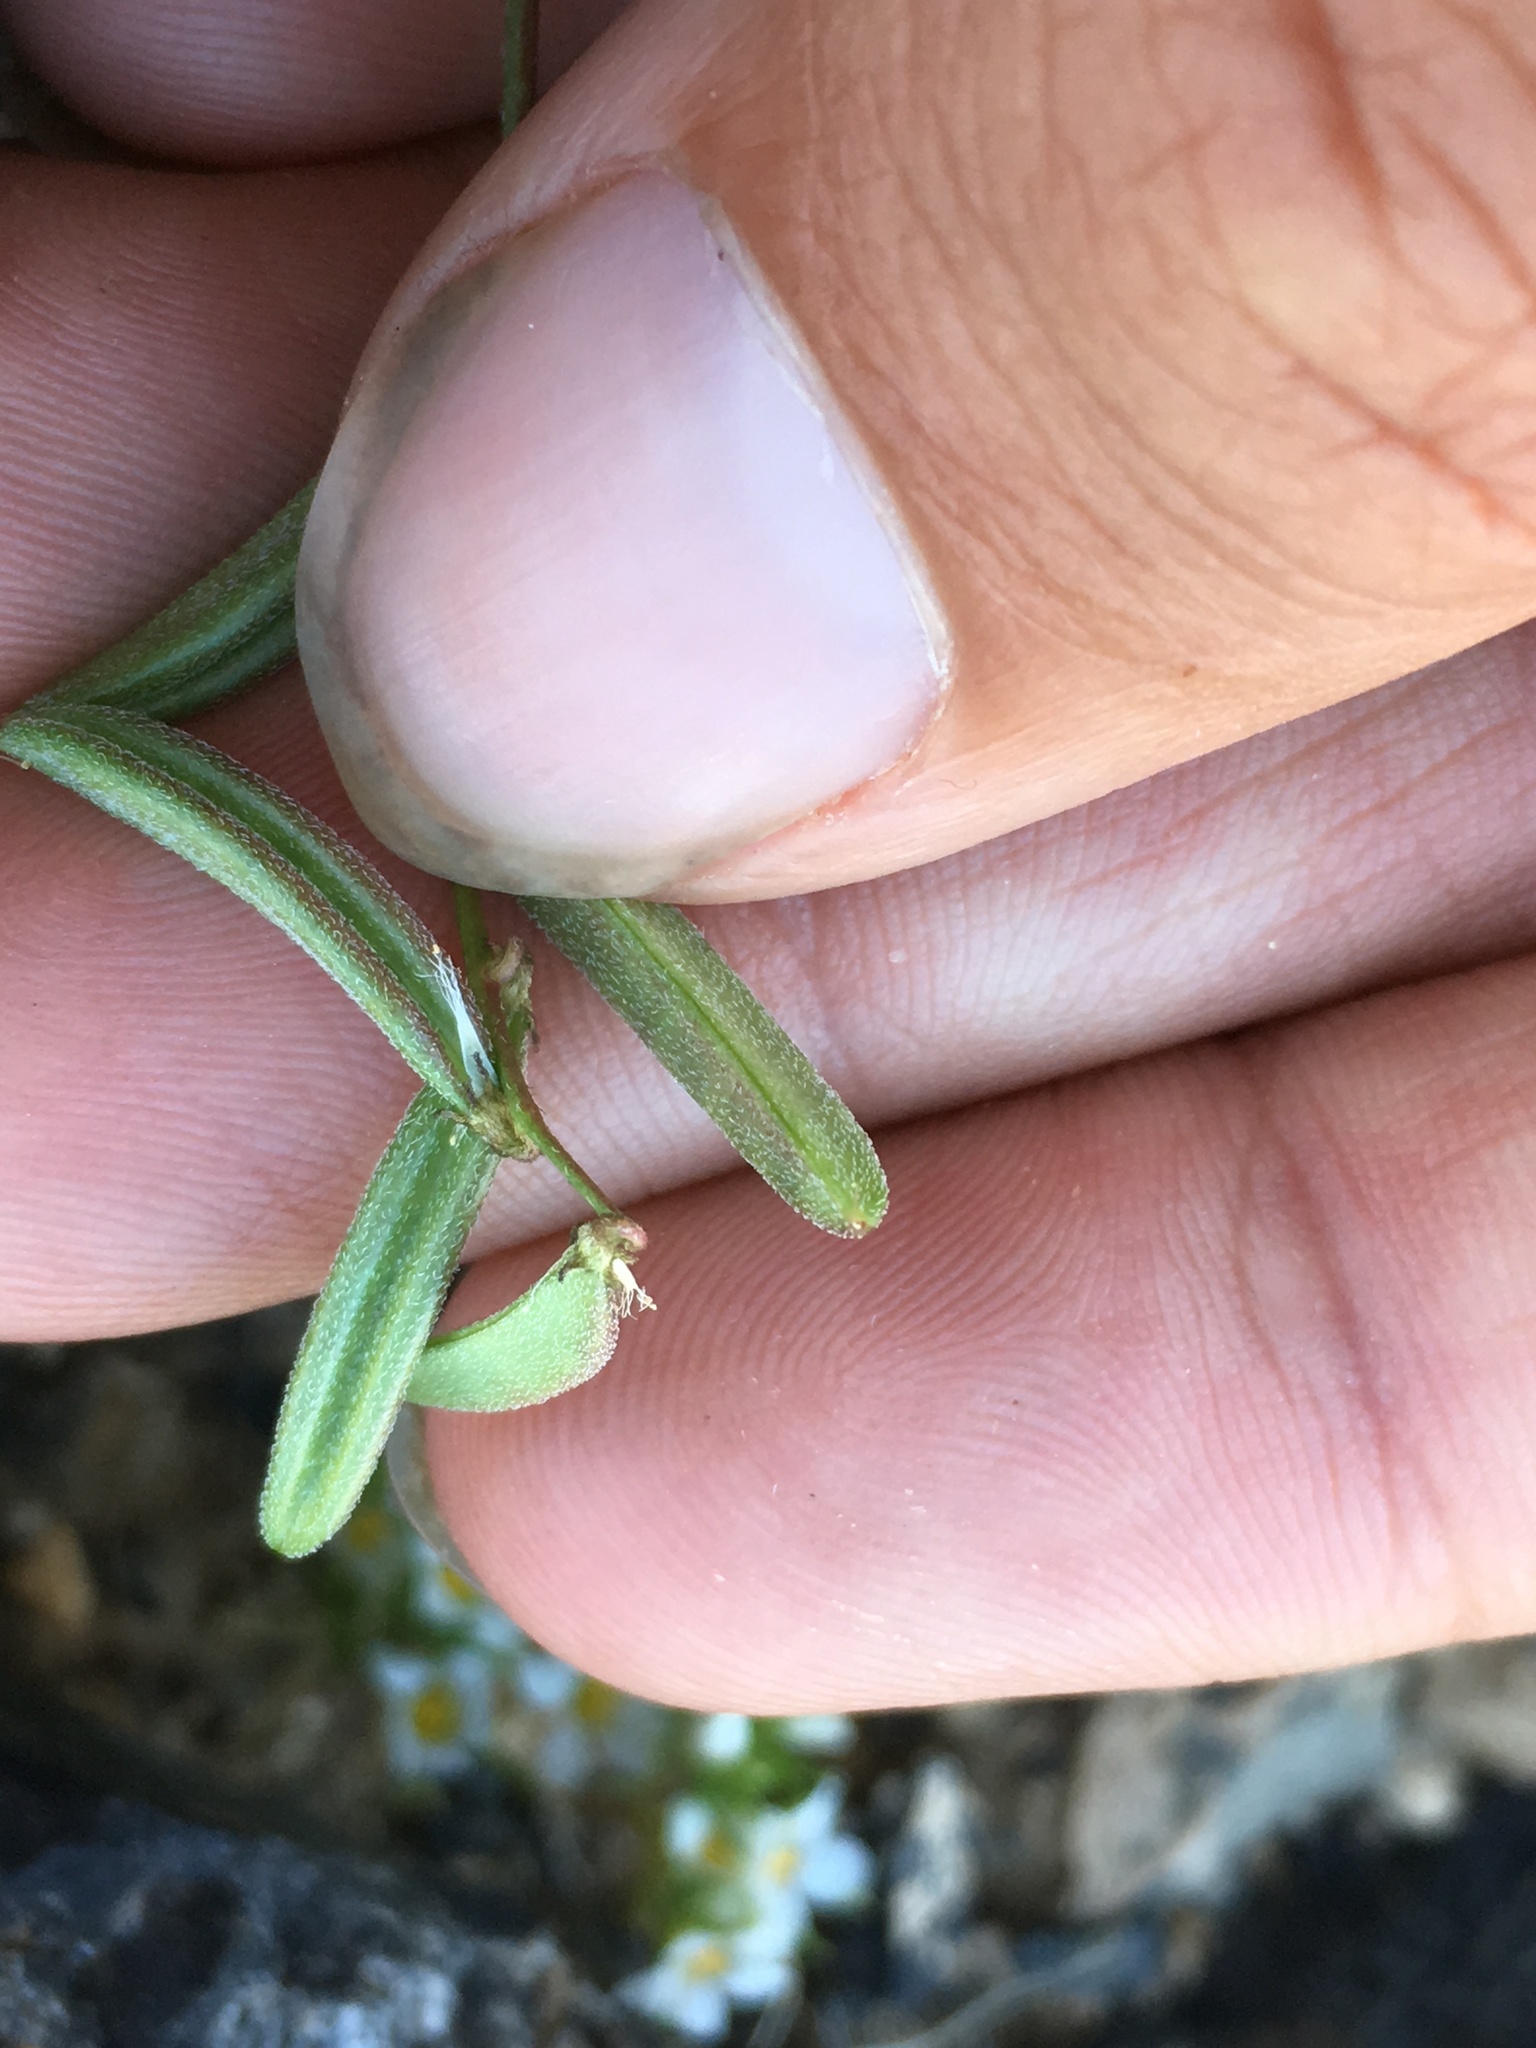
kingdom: Plantae
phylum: Tracheophyta
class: Magnoliopsida
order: Fabales
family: Fabaceae
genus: Astragalus
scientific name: Astragalus acutirostris
